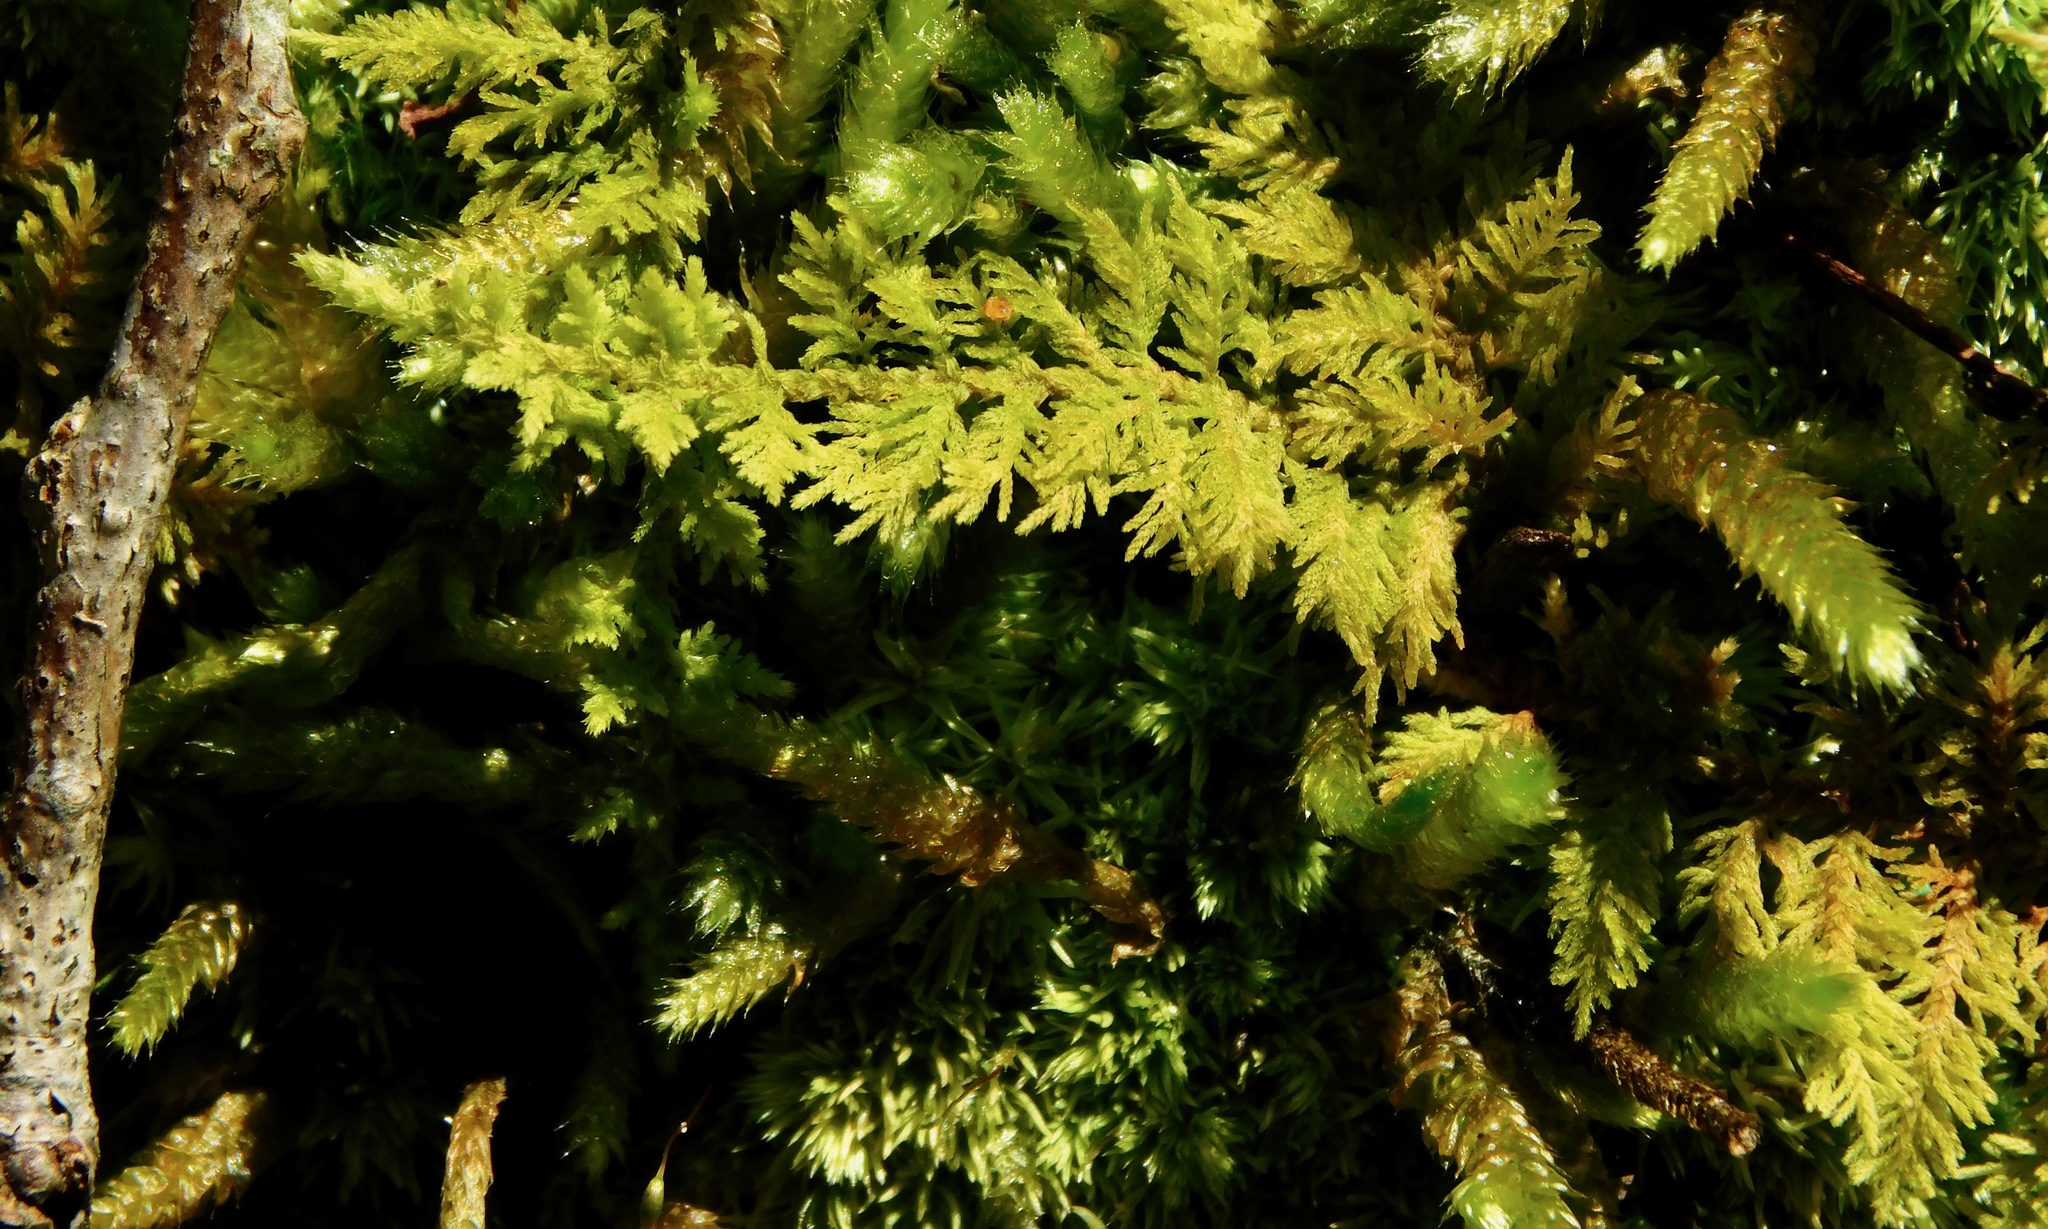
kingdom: Plantae
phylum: Bryophyta
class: Bryopsida
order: Hypnales
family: Thuidiaceae
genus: Thuidium
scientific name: Thuidium delicatulum
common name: Delicate fern moss
